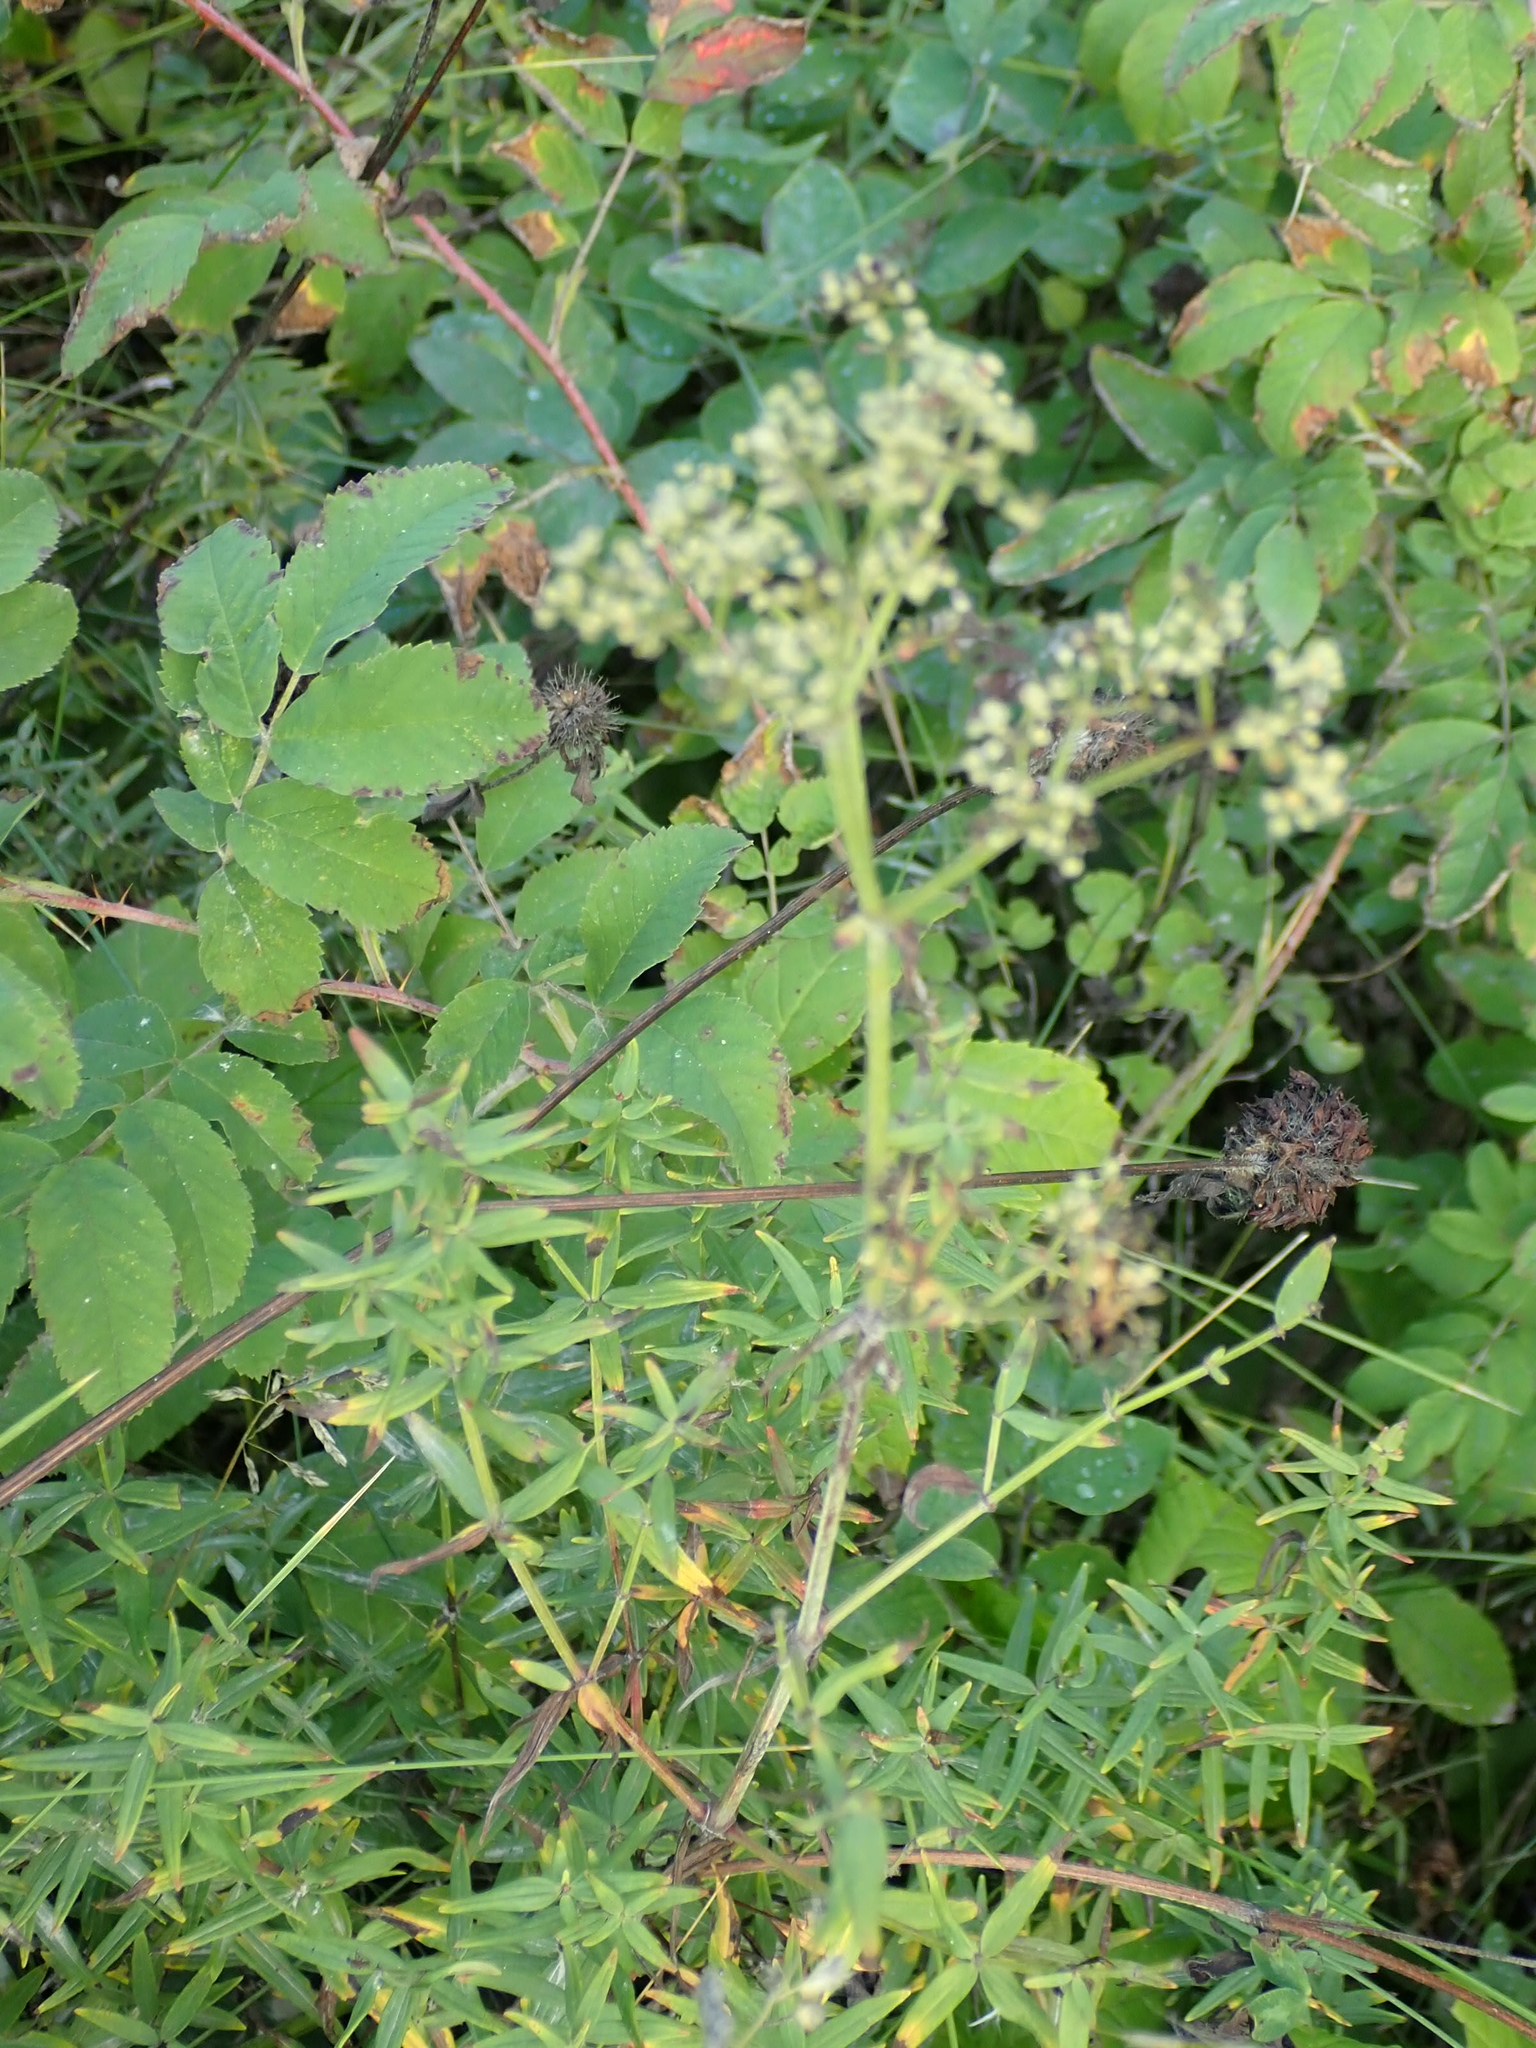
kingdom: Plantae
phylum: Tracheophyta
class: Magnoliopsida
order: Gentianales
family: Rubiaceae
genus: Galium
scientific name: Galium boreale
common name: Northern bedstraw
